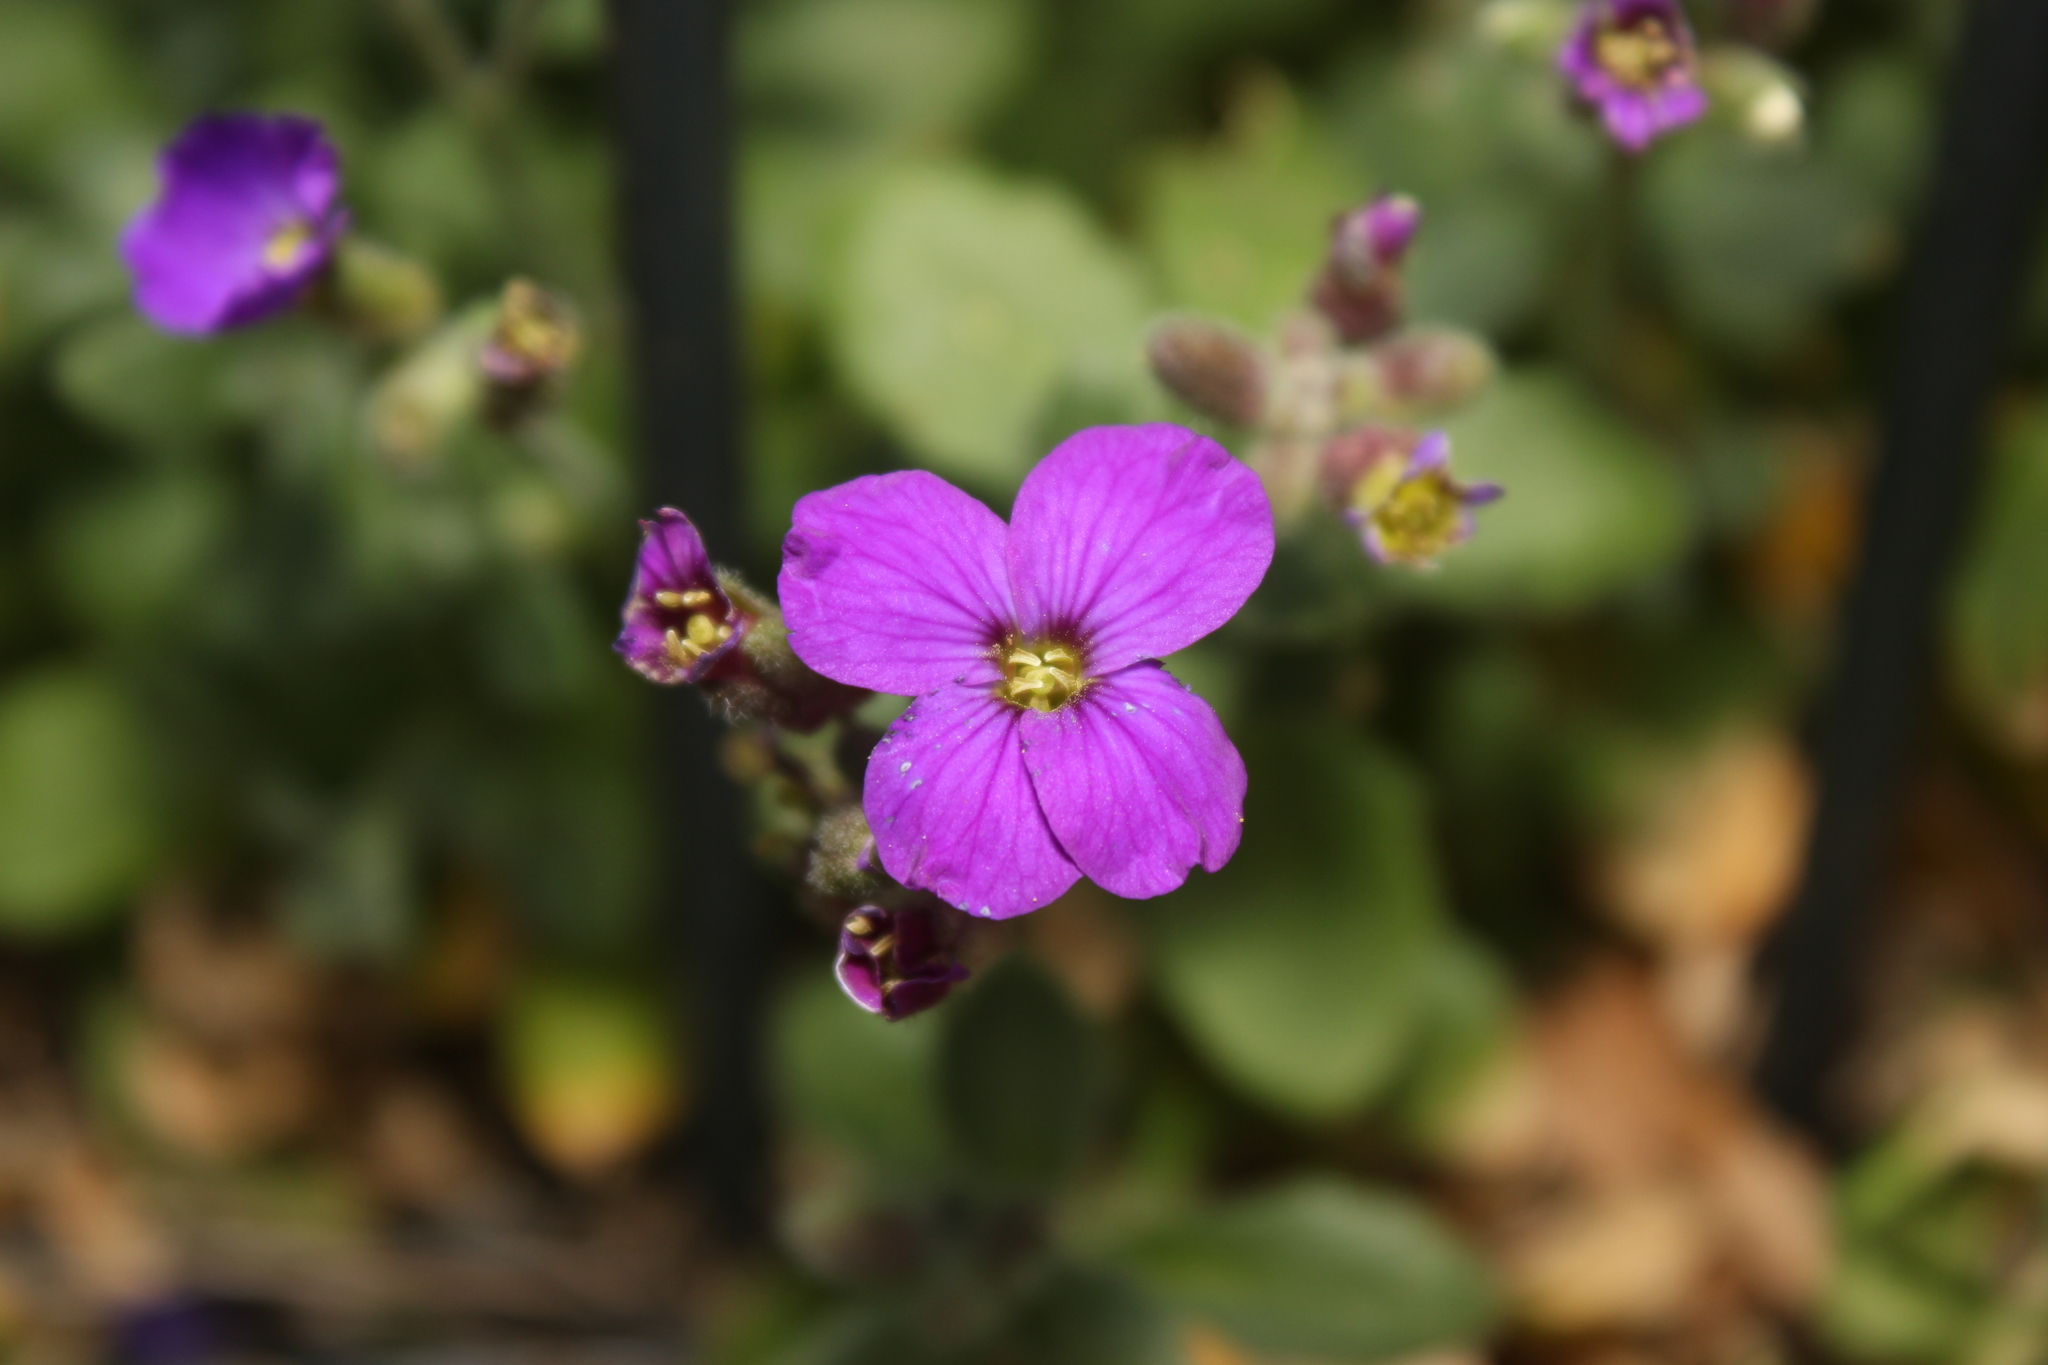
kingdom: Plantae
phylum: Tracheophyta
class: Magnoliopsida
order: Brassicales
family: Brassicaceae
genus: Aubrieta
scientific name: Aubrieta deltoidea
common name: Aubretia
